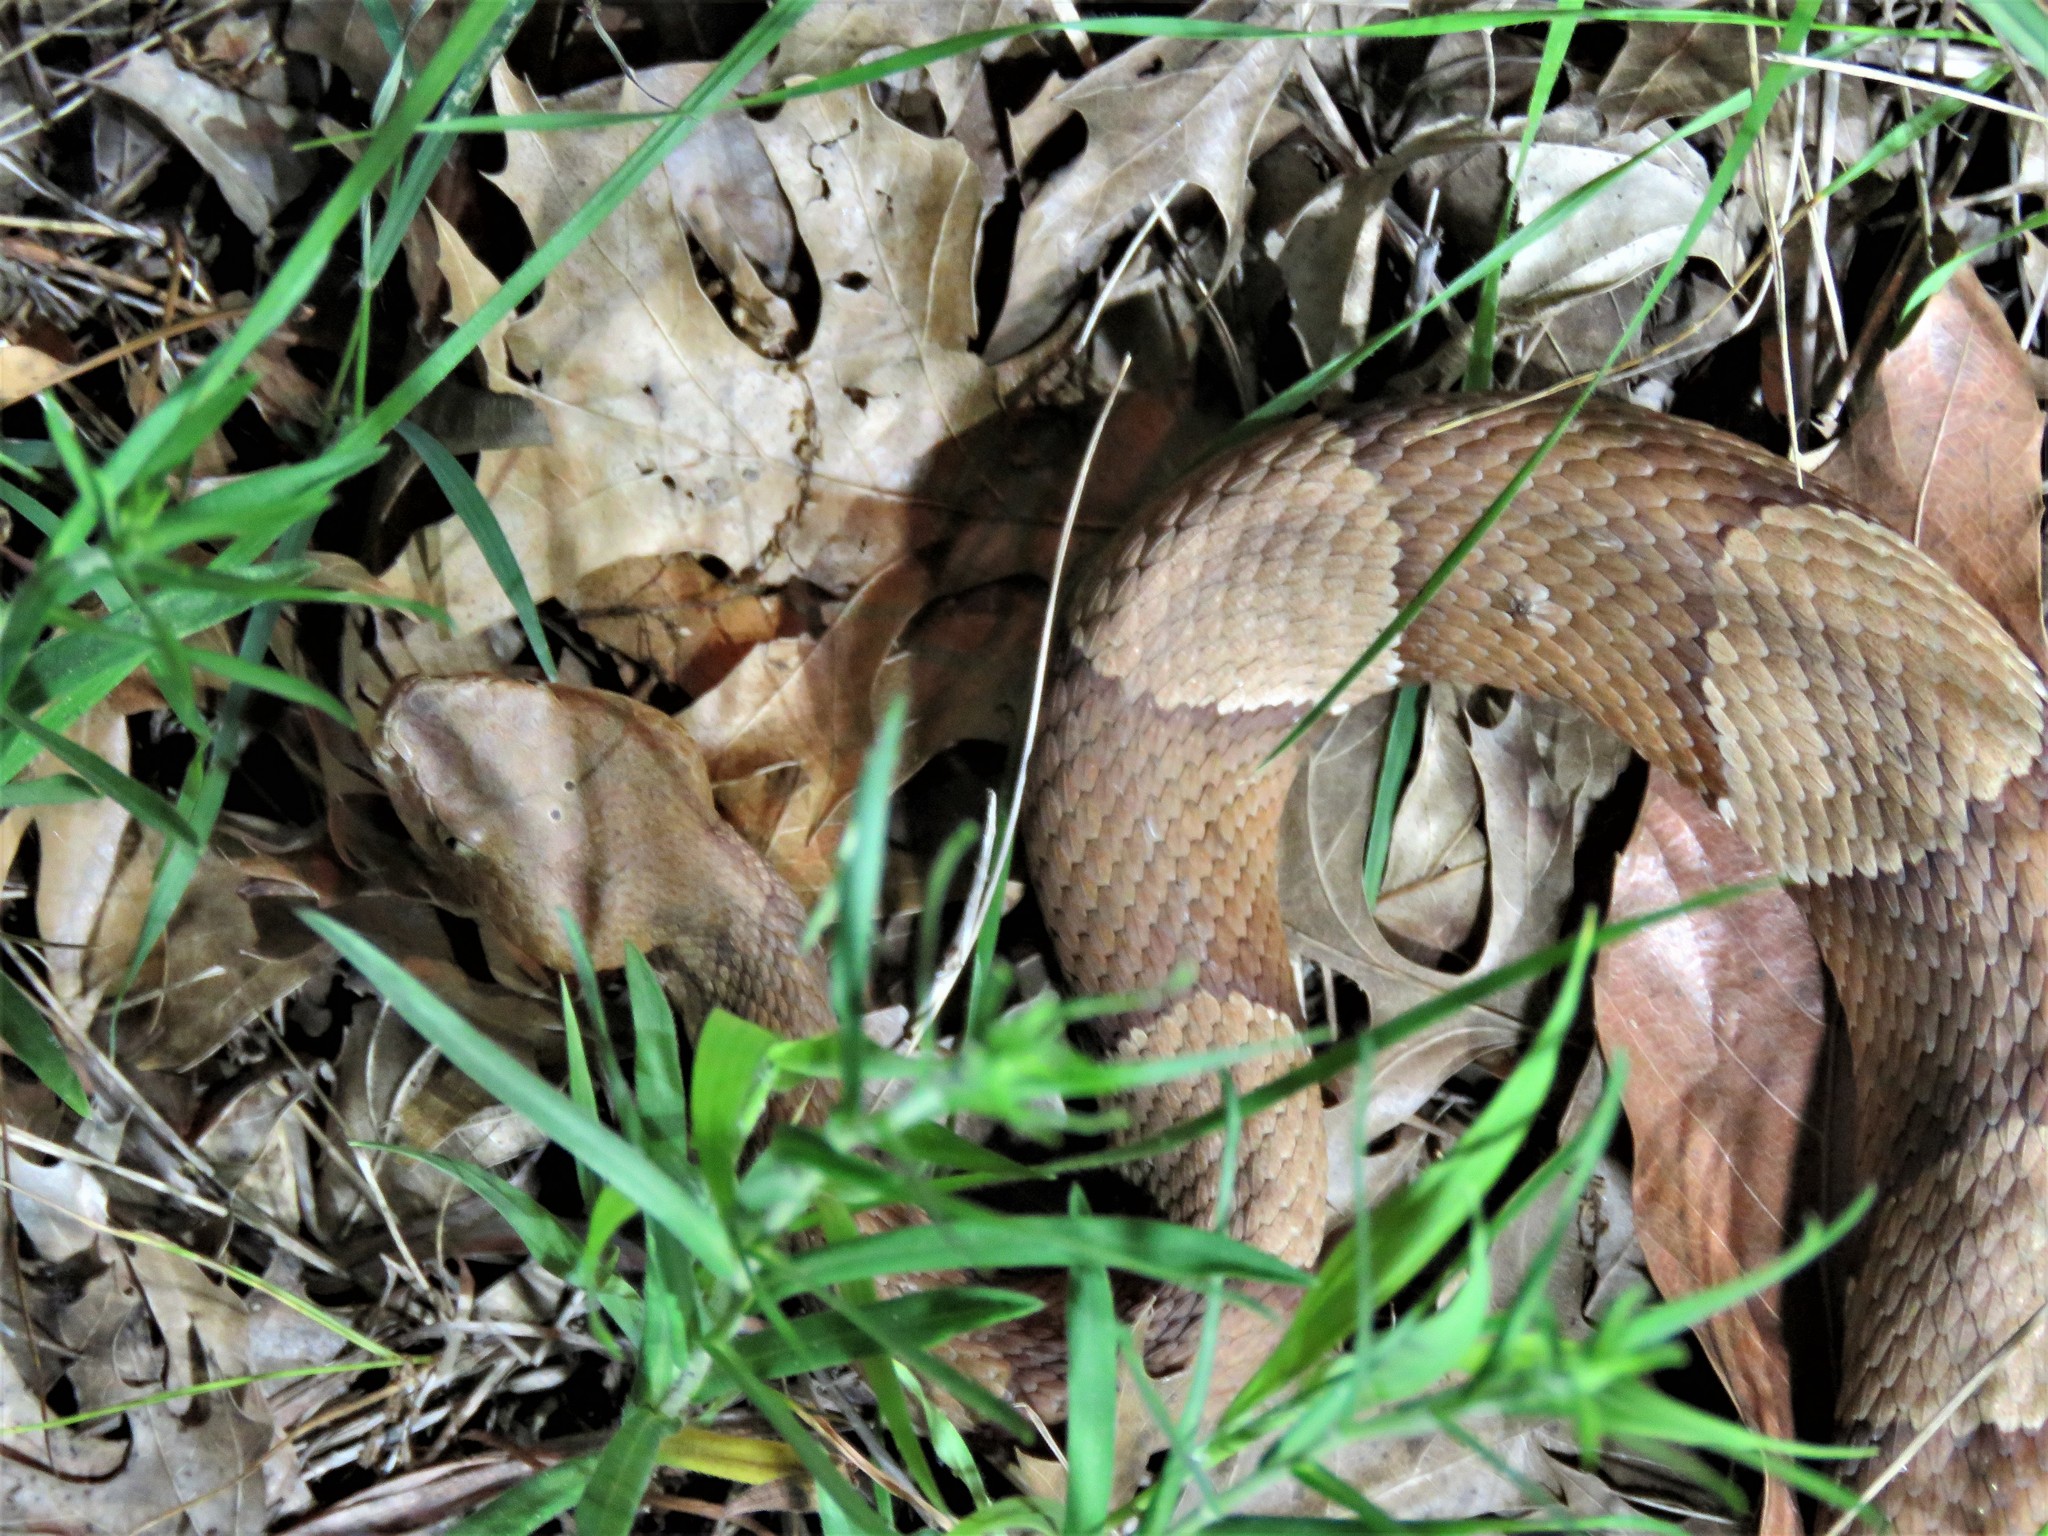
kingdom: Animalia
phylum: Chordata
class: Squamata
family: Viperidae
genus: Agkistrodon
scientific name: Agkistrodon laticinctus
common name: Broad-banded copperhead
